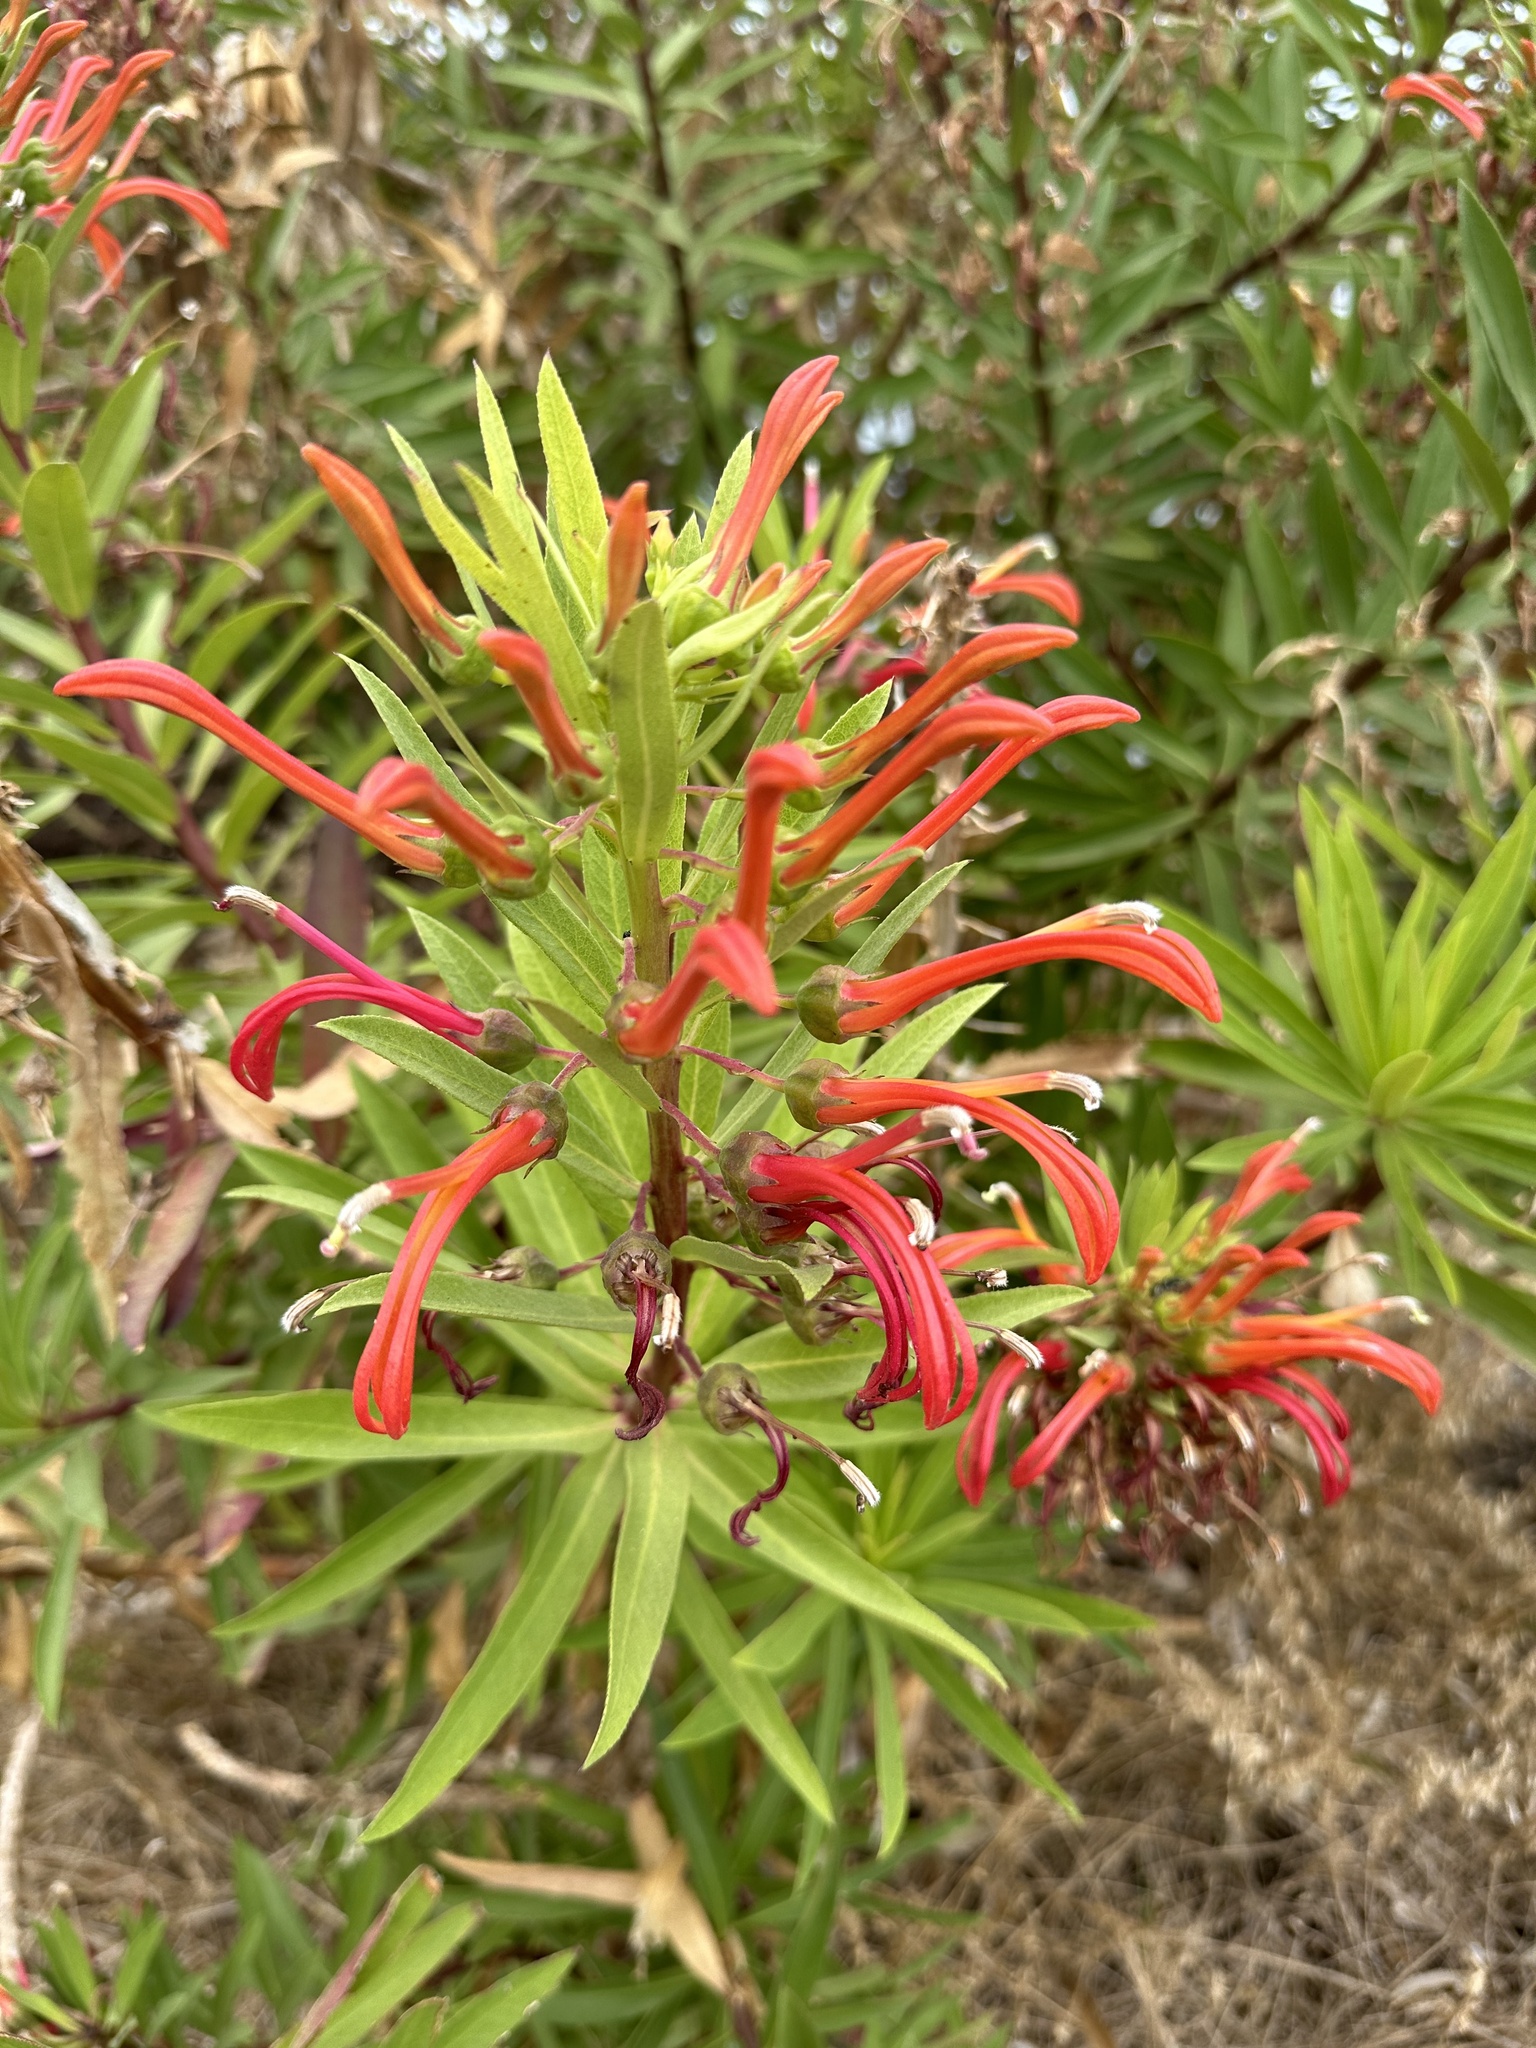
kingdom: Plantae
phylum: Tracheophyta
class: Magnoliopsida
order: Asterales
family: Campanulaceae
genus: Lobelia
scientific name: Lobelia excelsa
